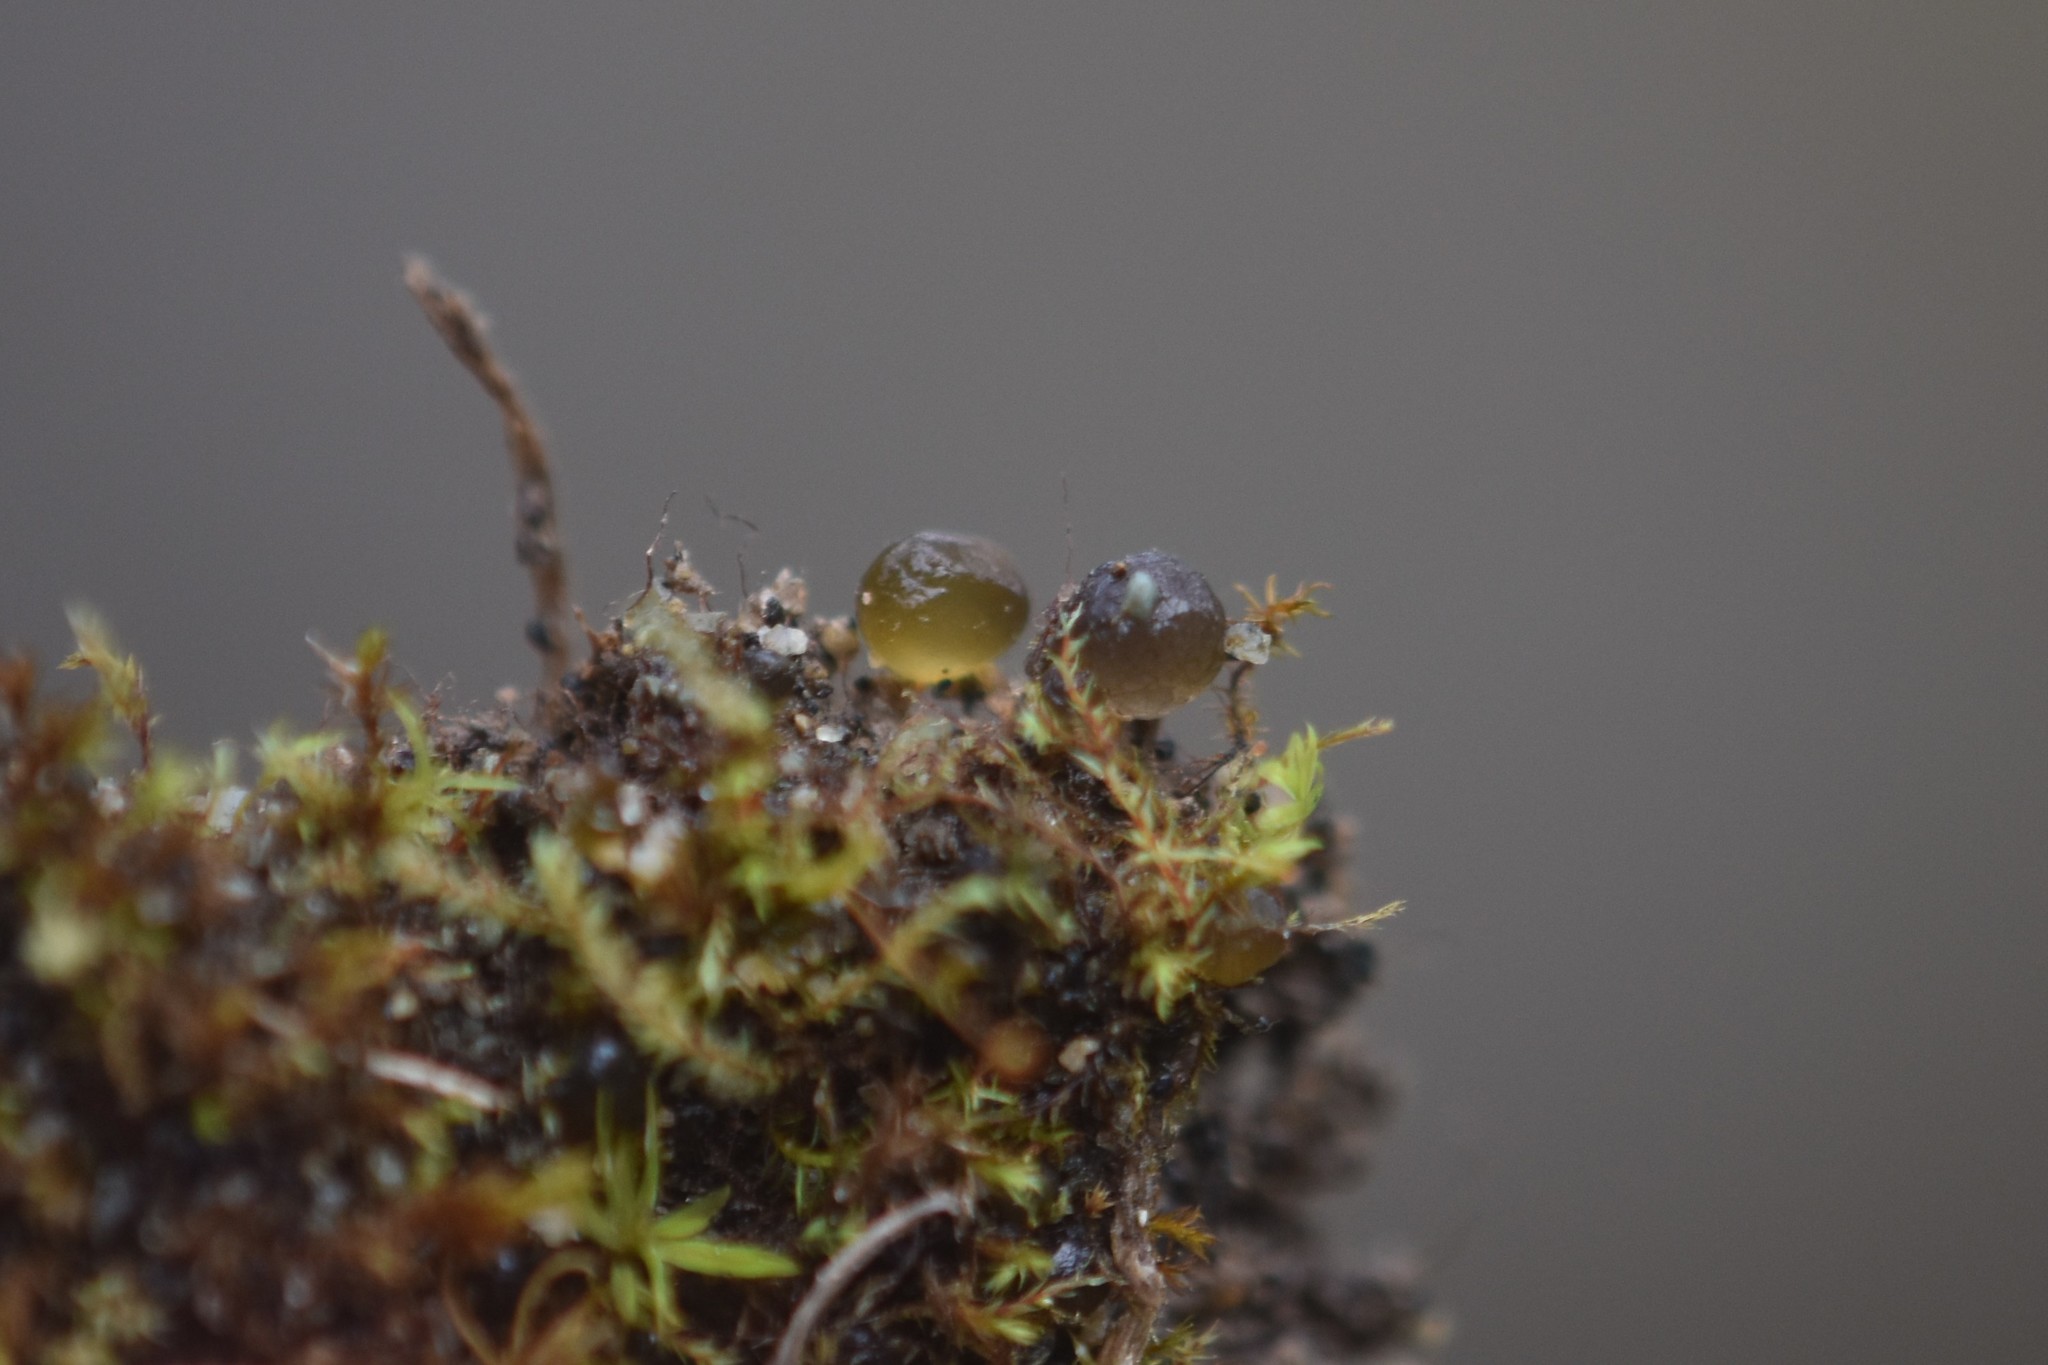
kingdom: Bacteria
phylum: Cyanobacteria
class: Cyanobacteriia
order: Cyanobacteriales
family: Nostocaceae
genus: Nostoc
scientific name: Nostoc
